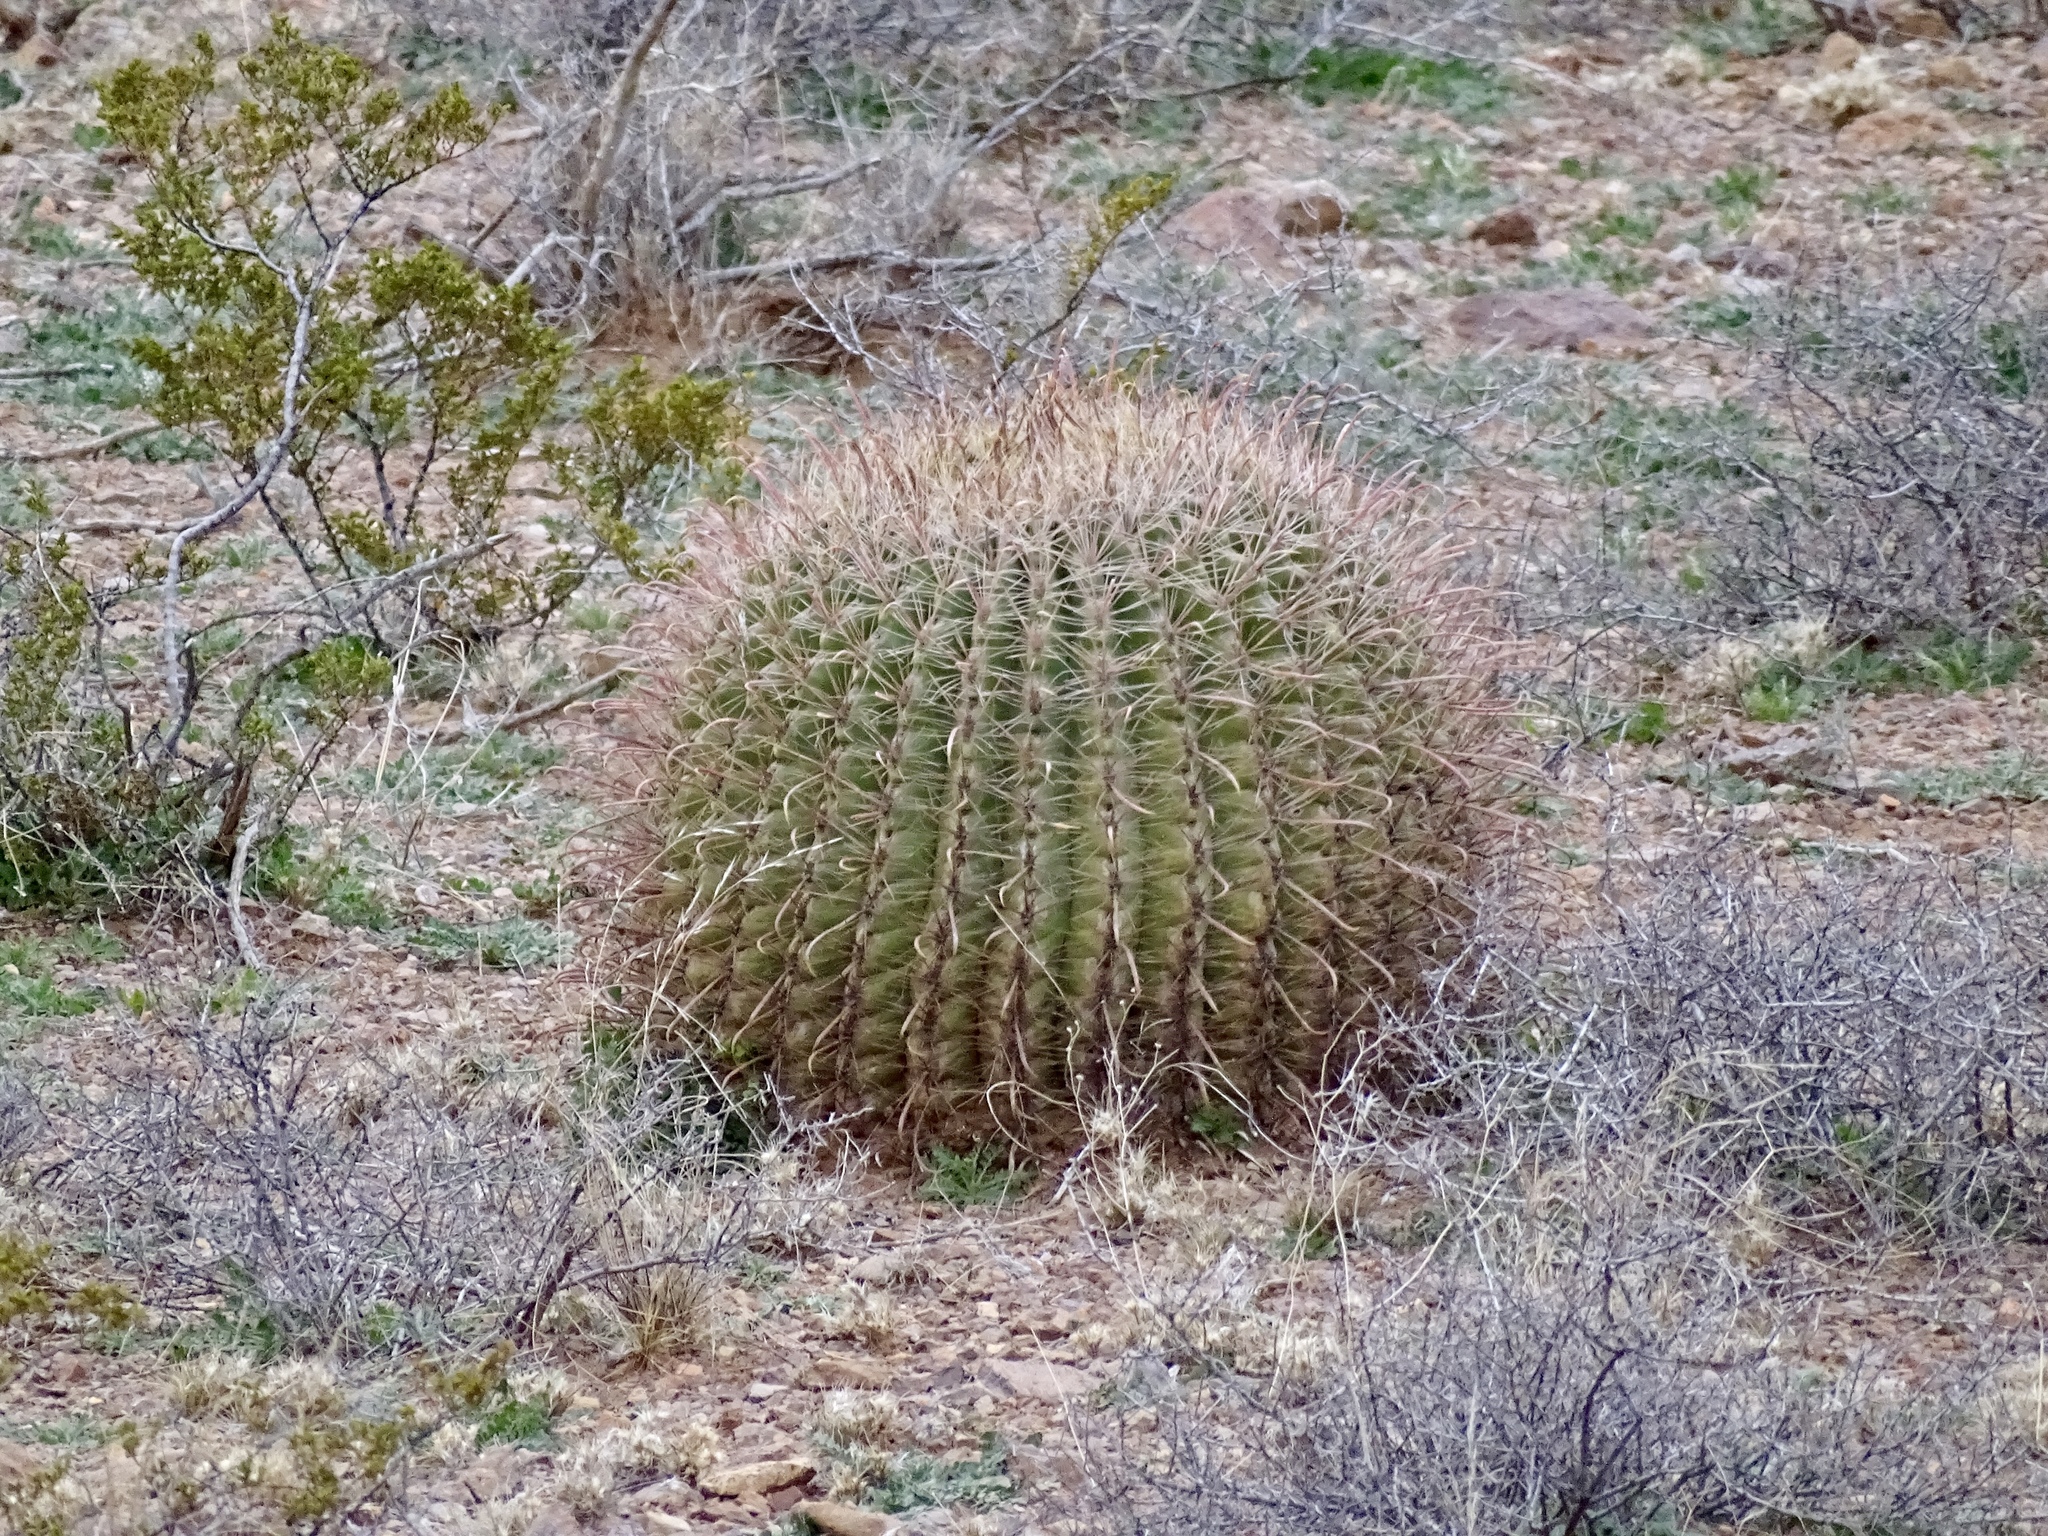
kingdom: Plantae
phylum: Tracheophyta
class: Magnoliopsida
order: Caryophyllales
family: Cactaceae
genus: Ferocactus
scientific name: Ferocactus wislizeni
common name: Candy barrel cactus
